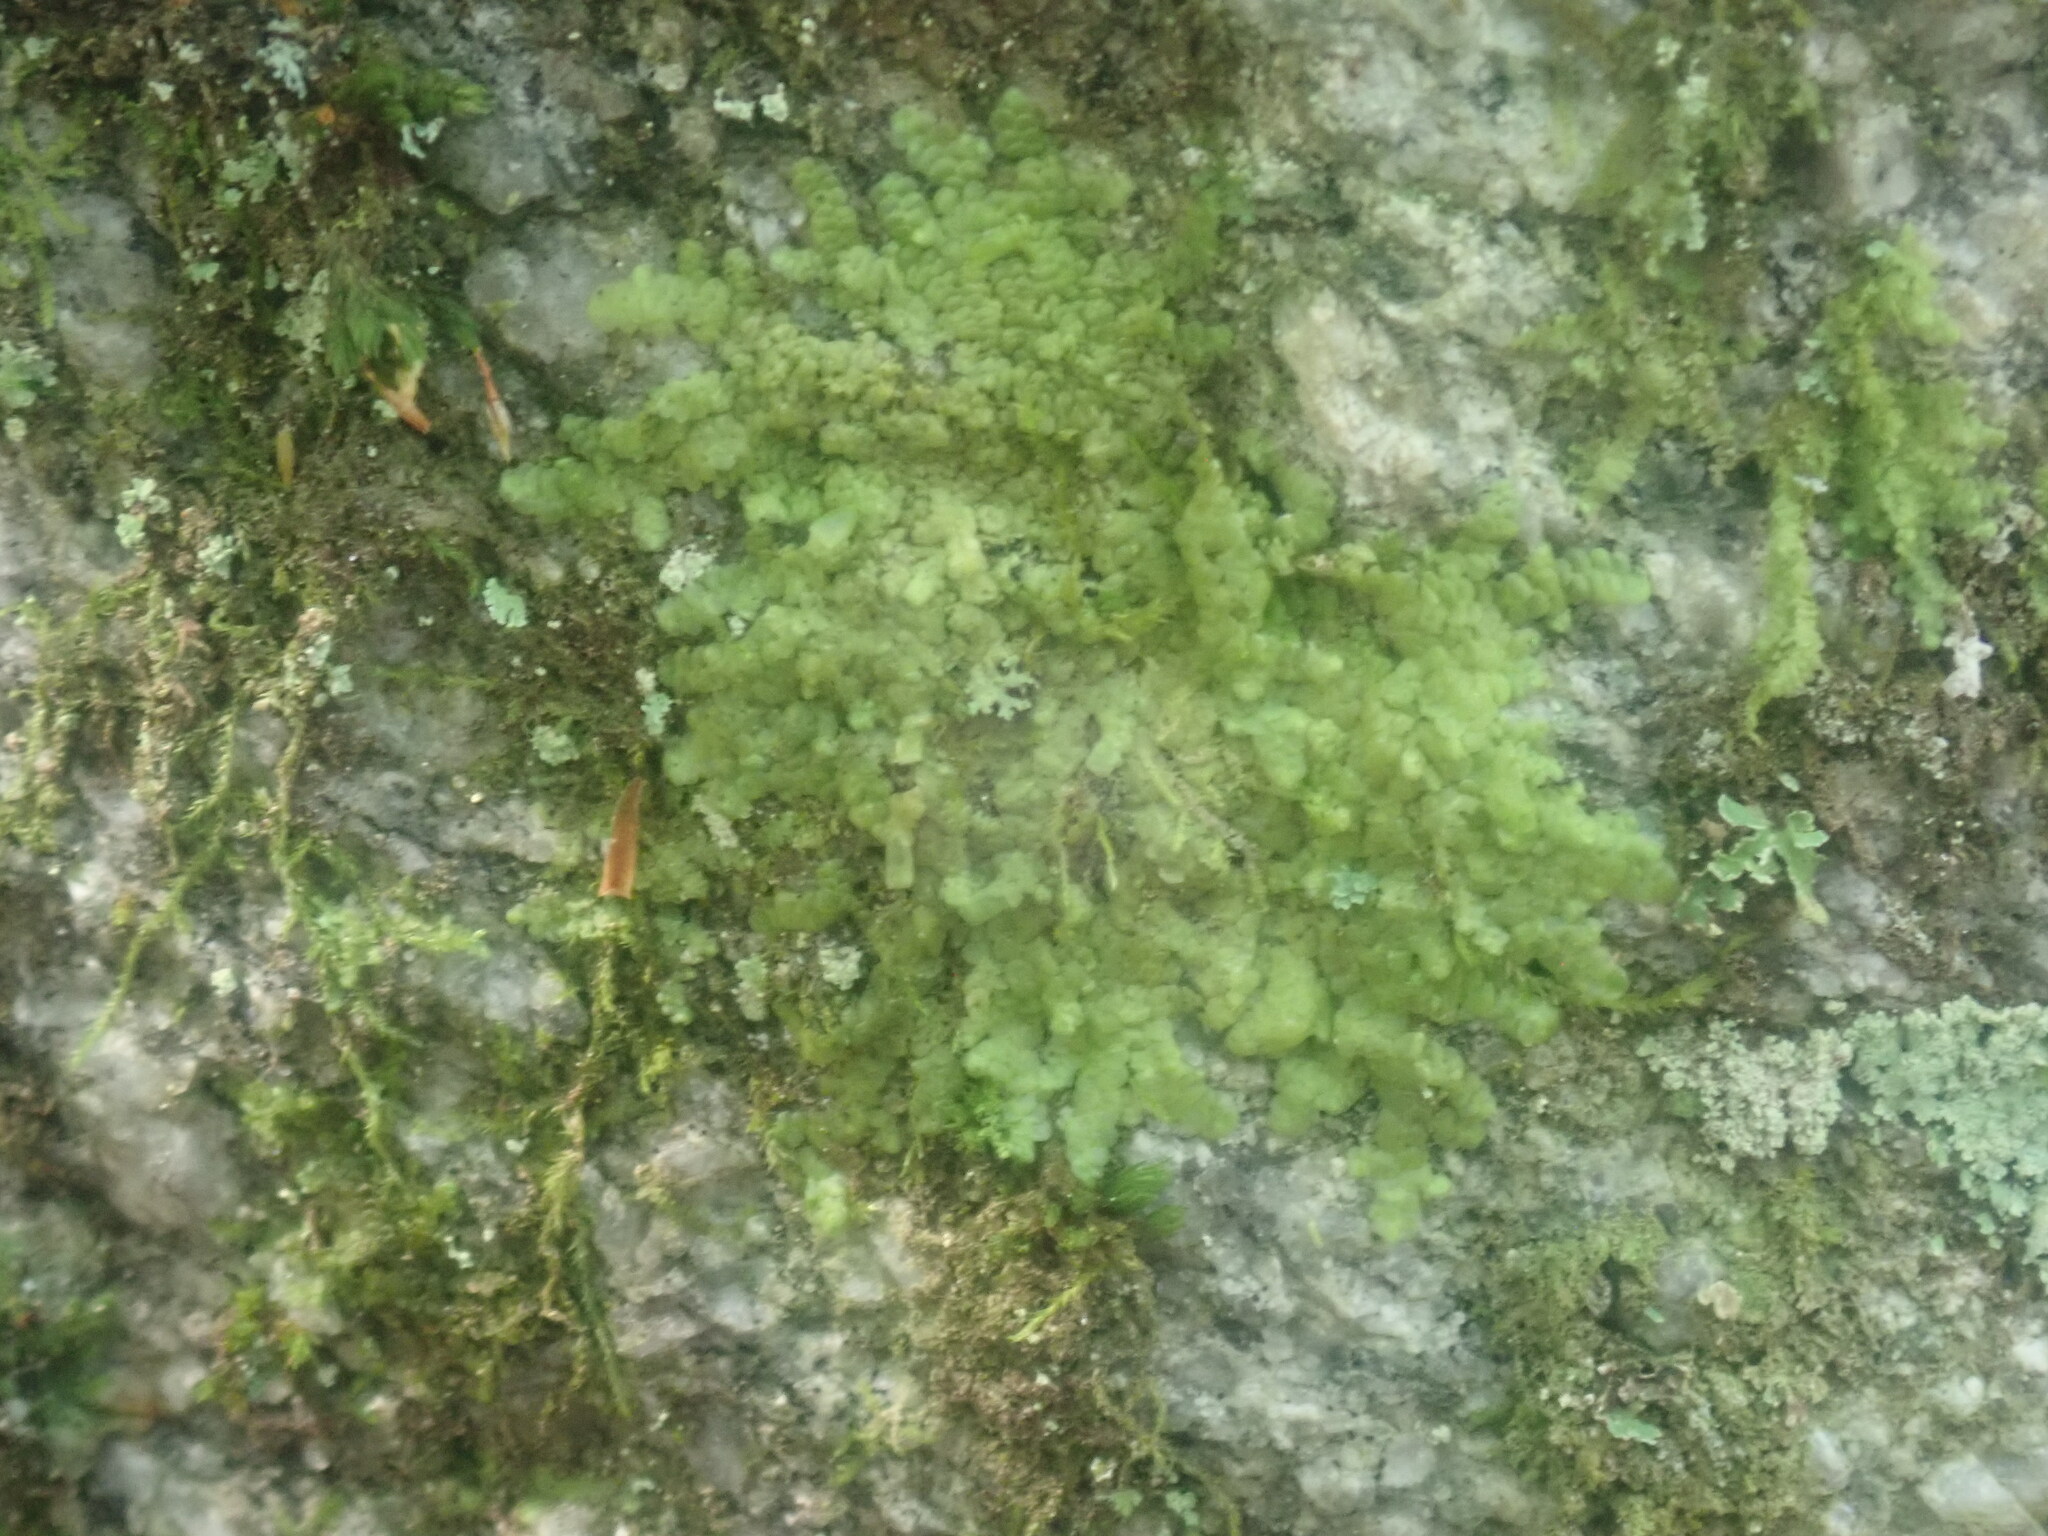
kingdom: Plantae
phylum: Marchantiophyta
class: Jungermanniopsida
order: Porellales
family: Radulaceae
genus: Radula
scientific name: Radula complanata
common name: Flat-leaved scalewort
